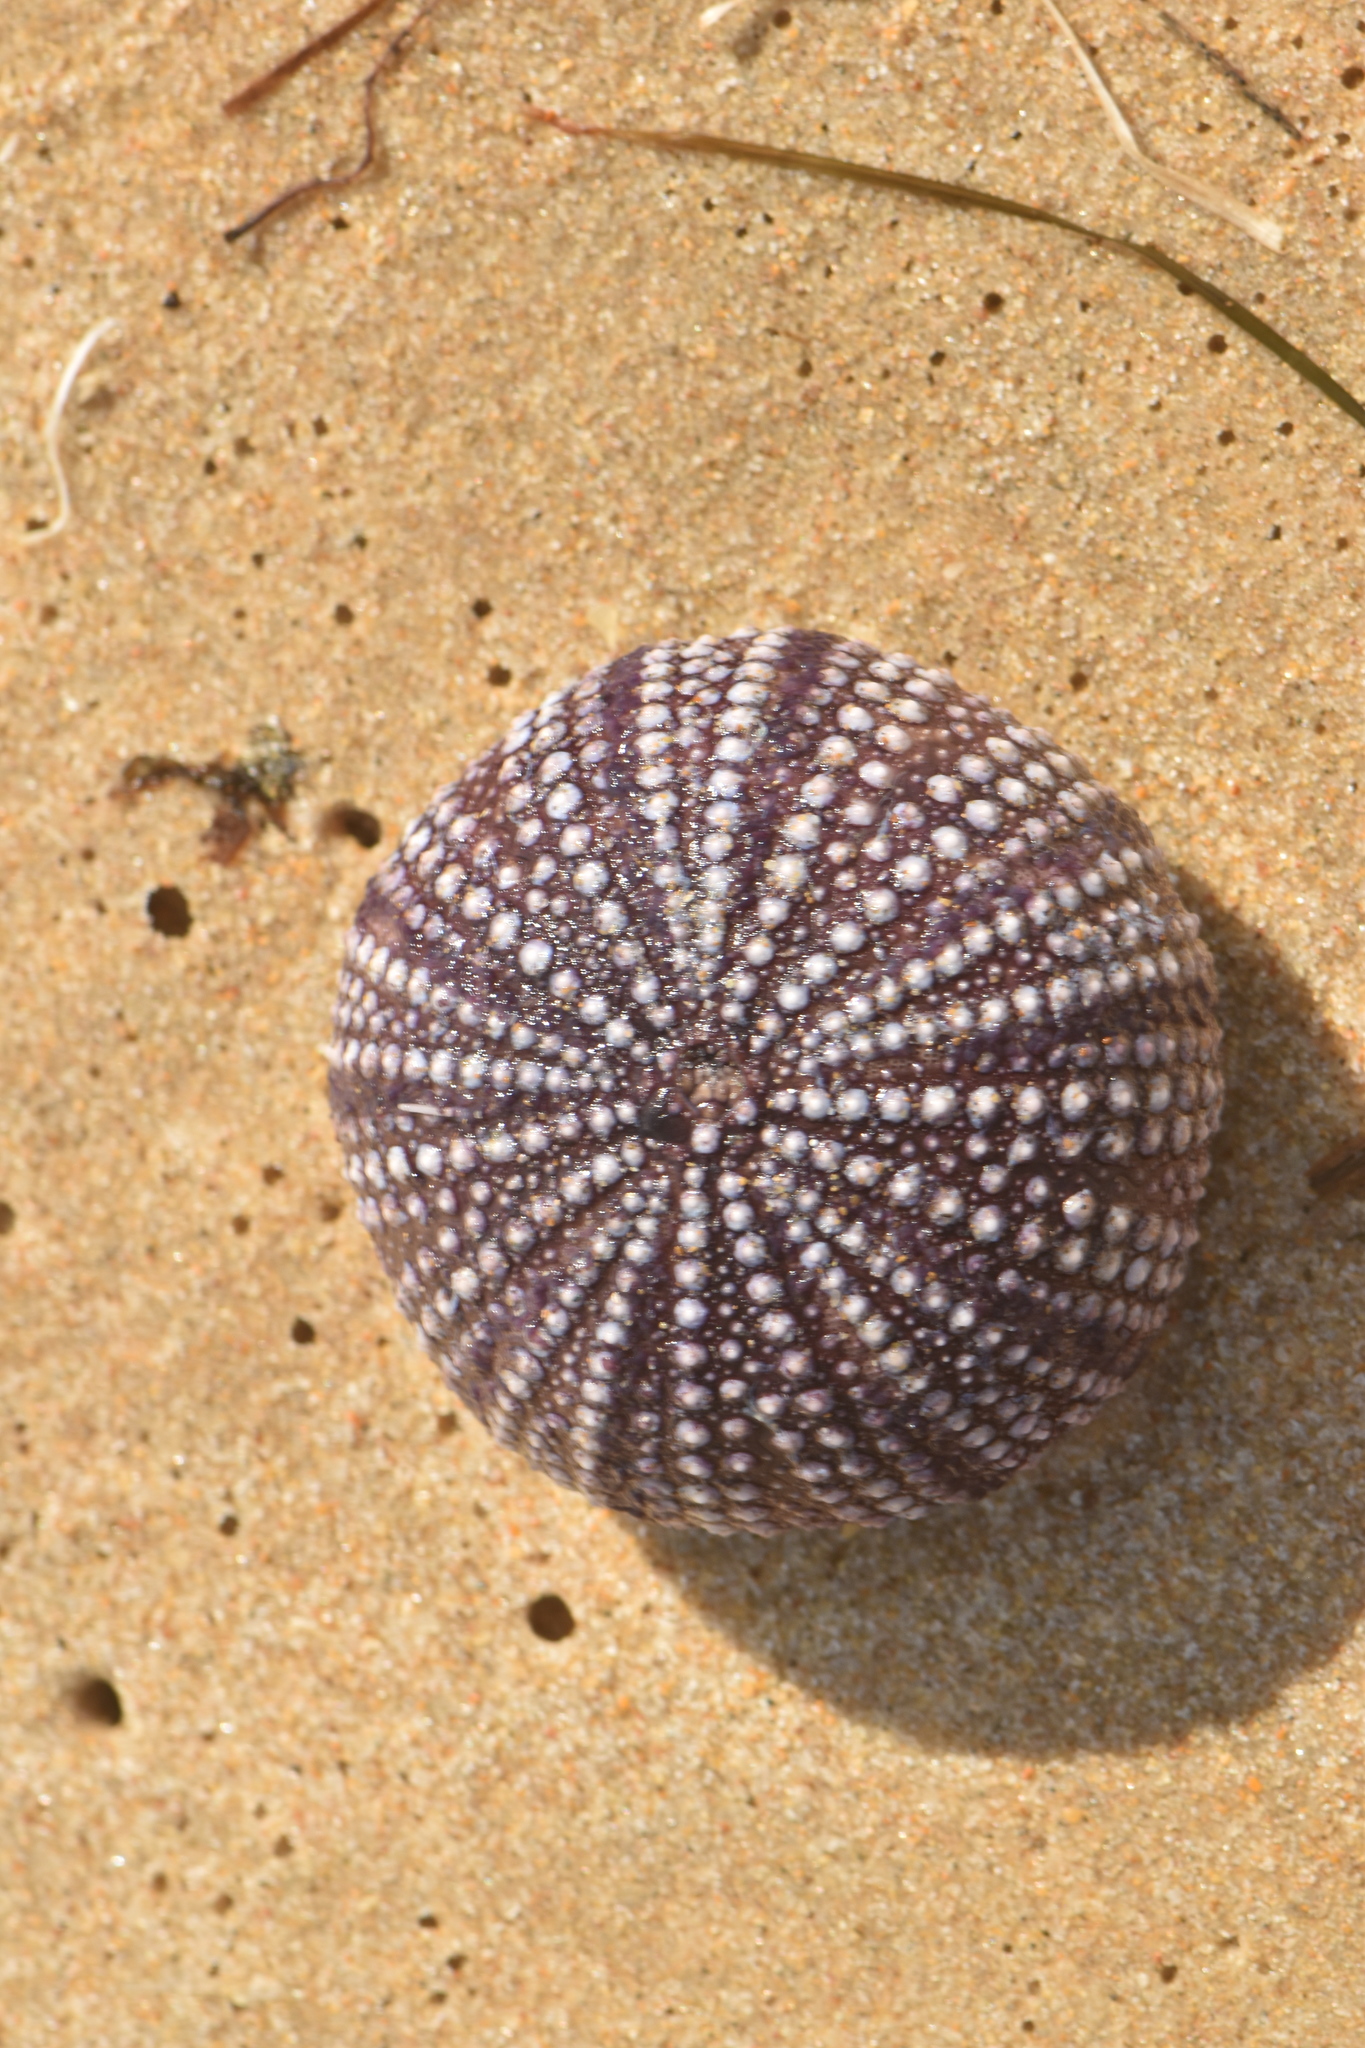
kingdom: Animalia
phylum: Echinodermata
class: Echinoidea
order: Camarodonta
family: Toxopneustidae
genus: Sphaerechinus
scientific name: Sphaerechinus granularis
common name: Violet sea urchin
